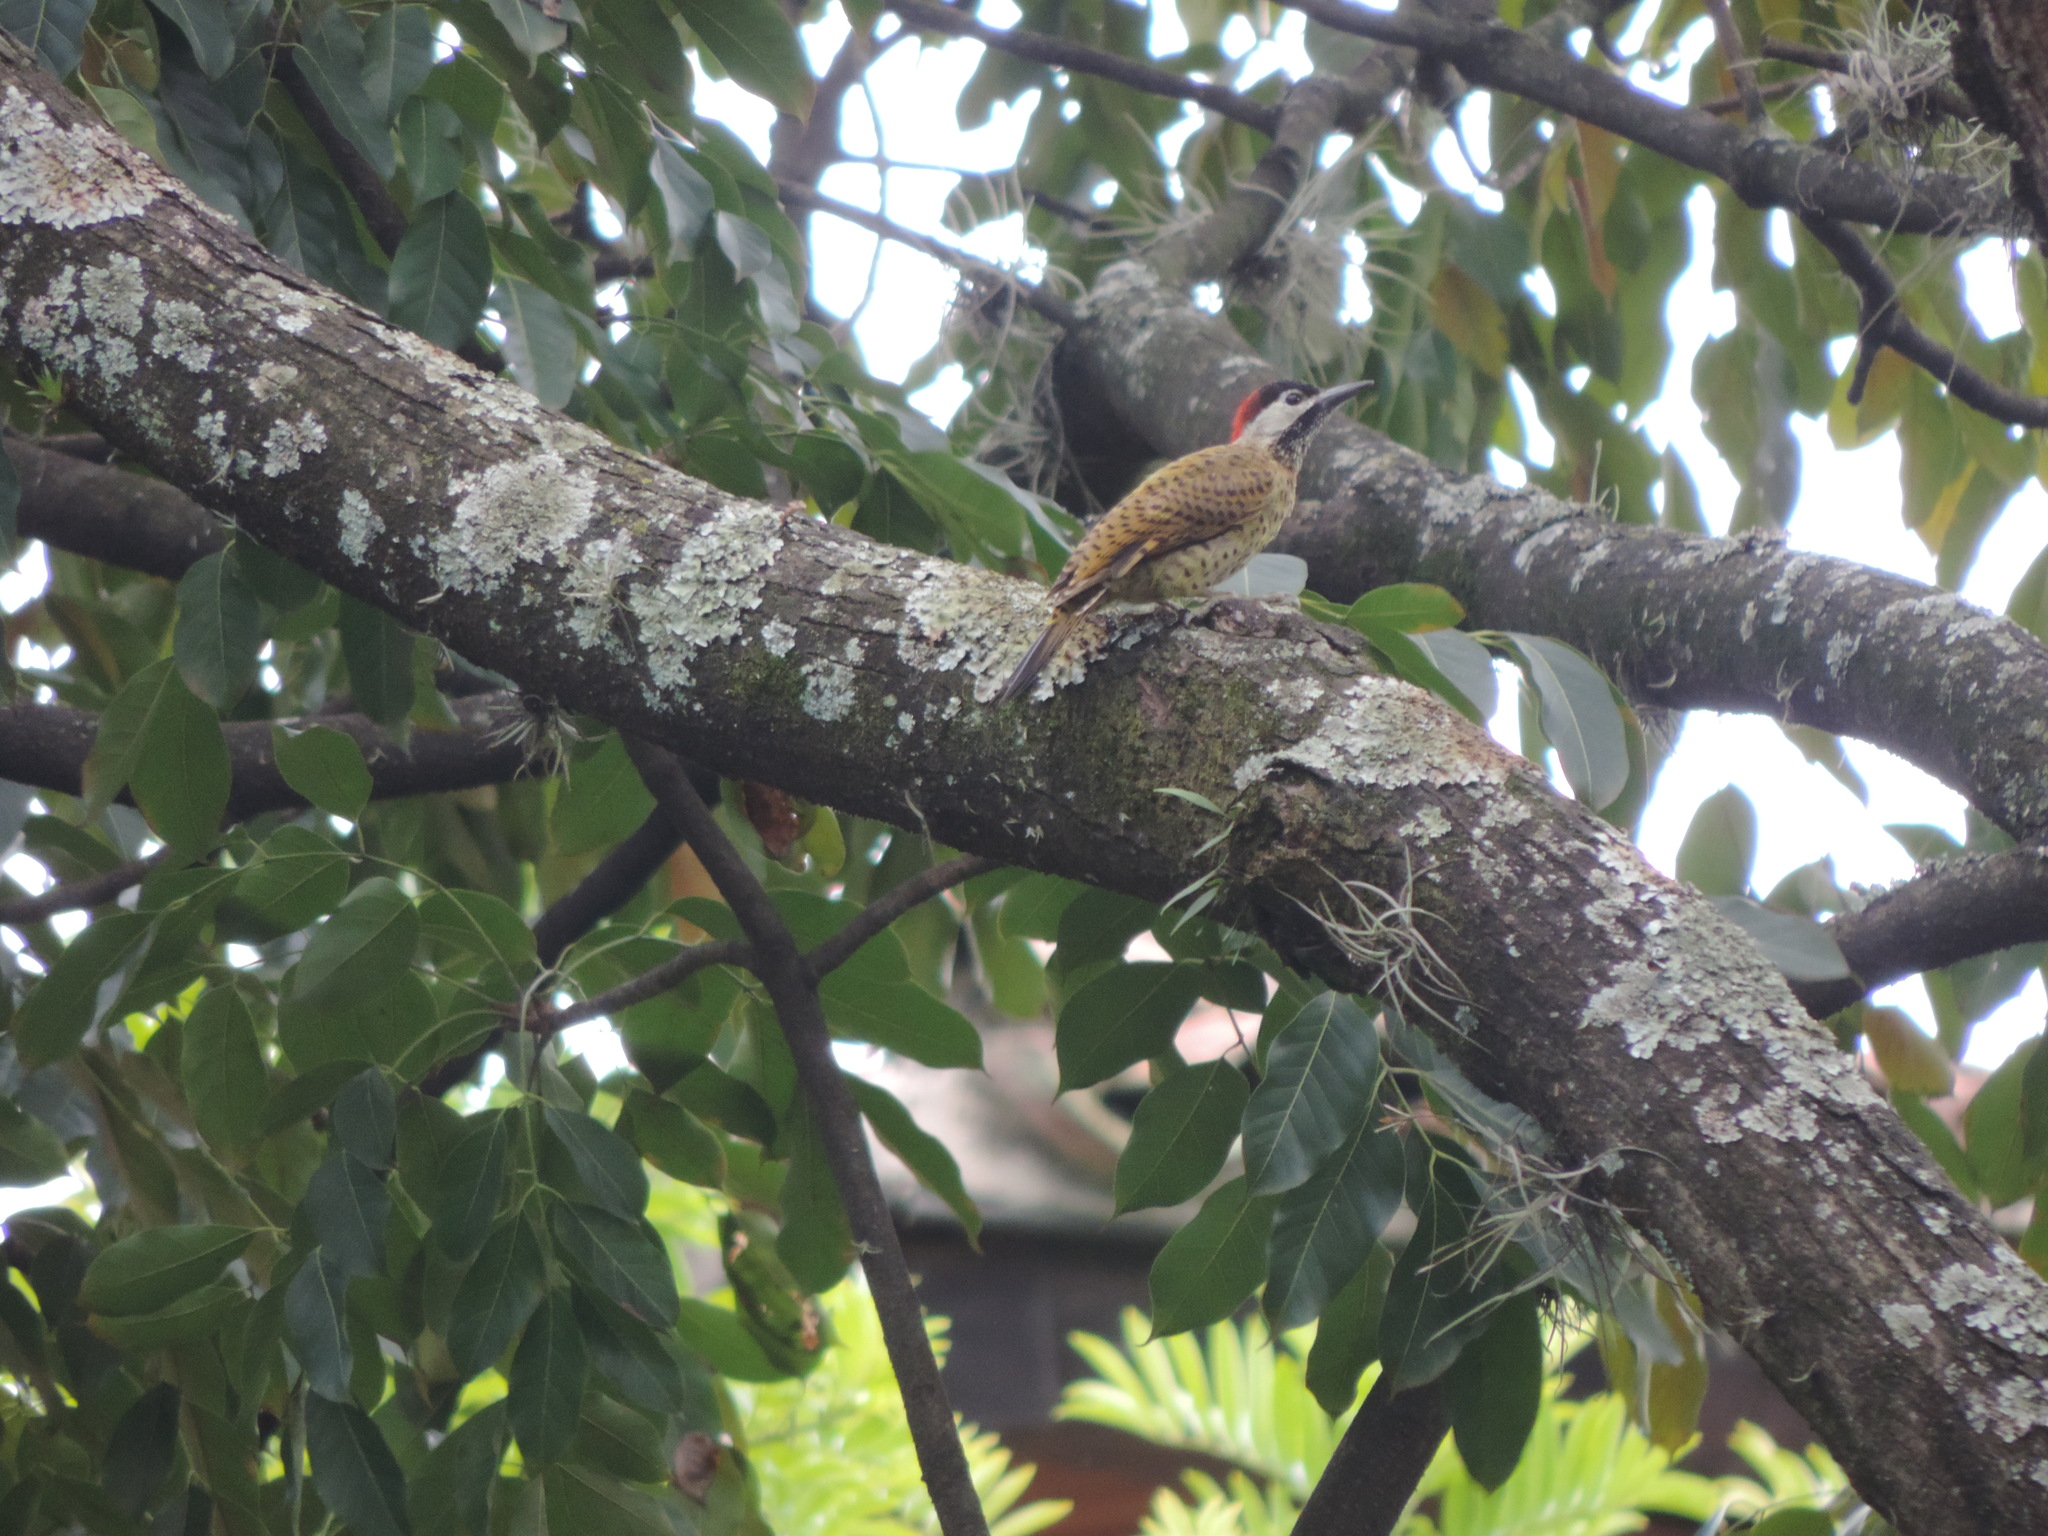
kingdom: Animalia
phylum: Chordata
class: Aves
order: Piciformes
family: Picidae
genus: Colaptes
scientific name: Colaptes punctigula
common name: Spot-breasted woodpecker
